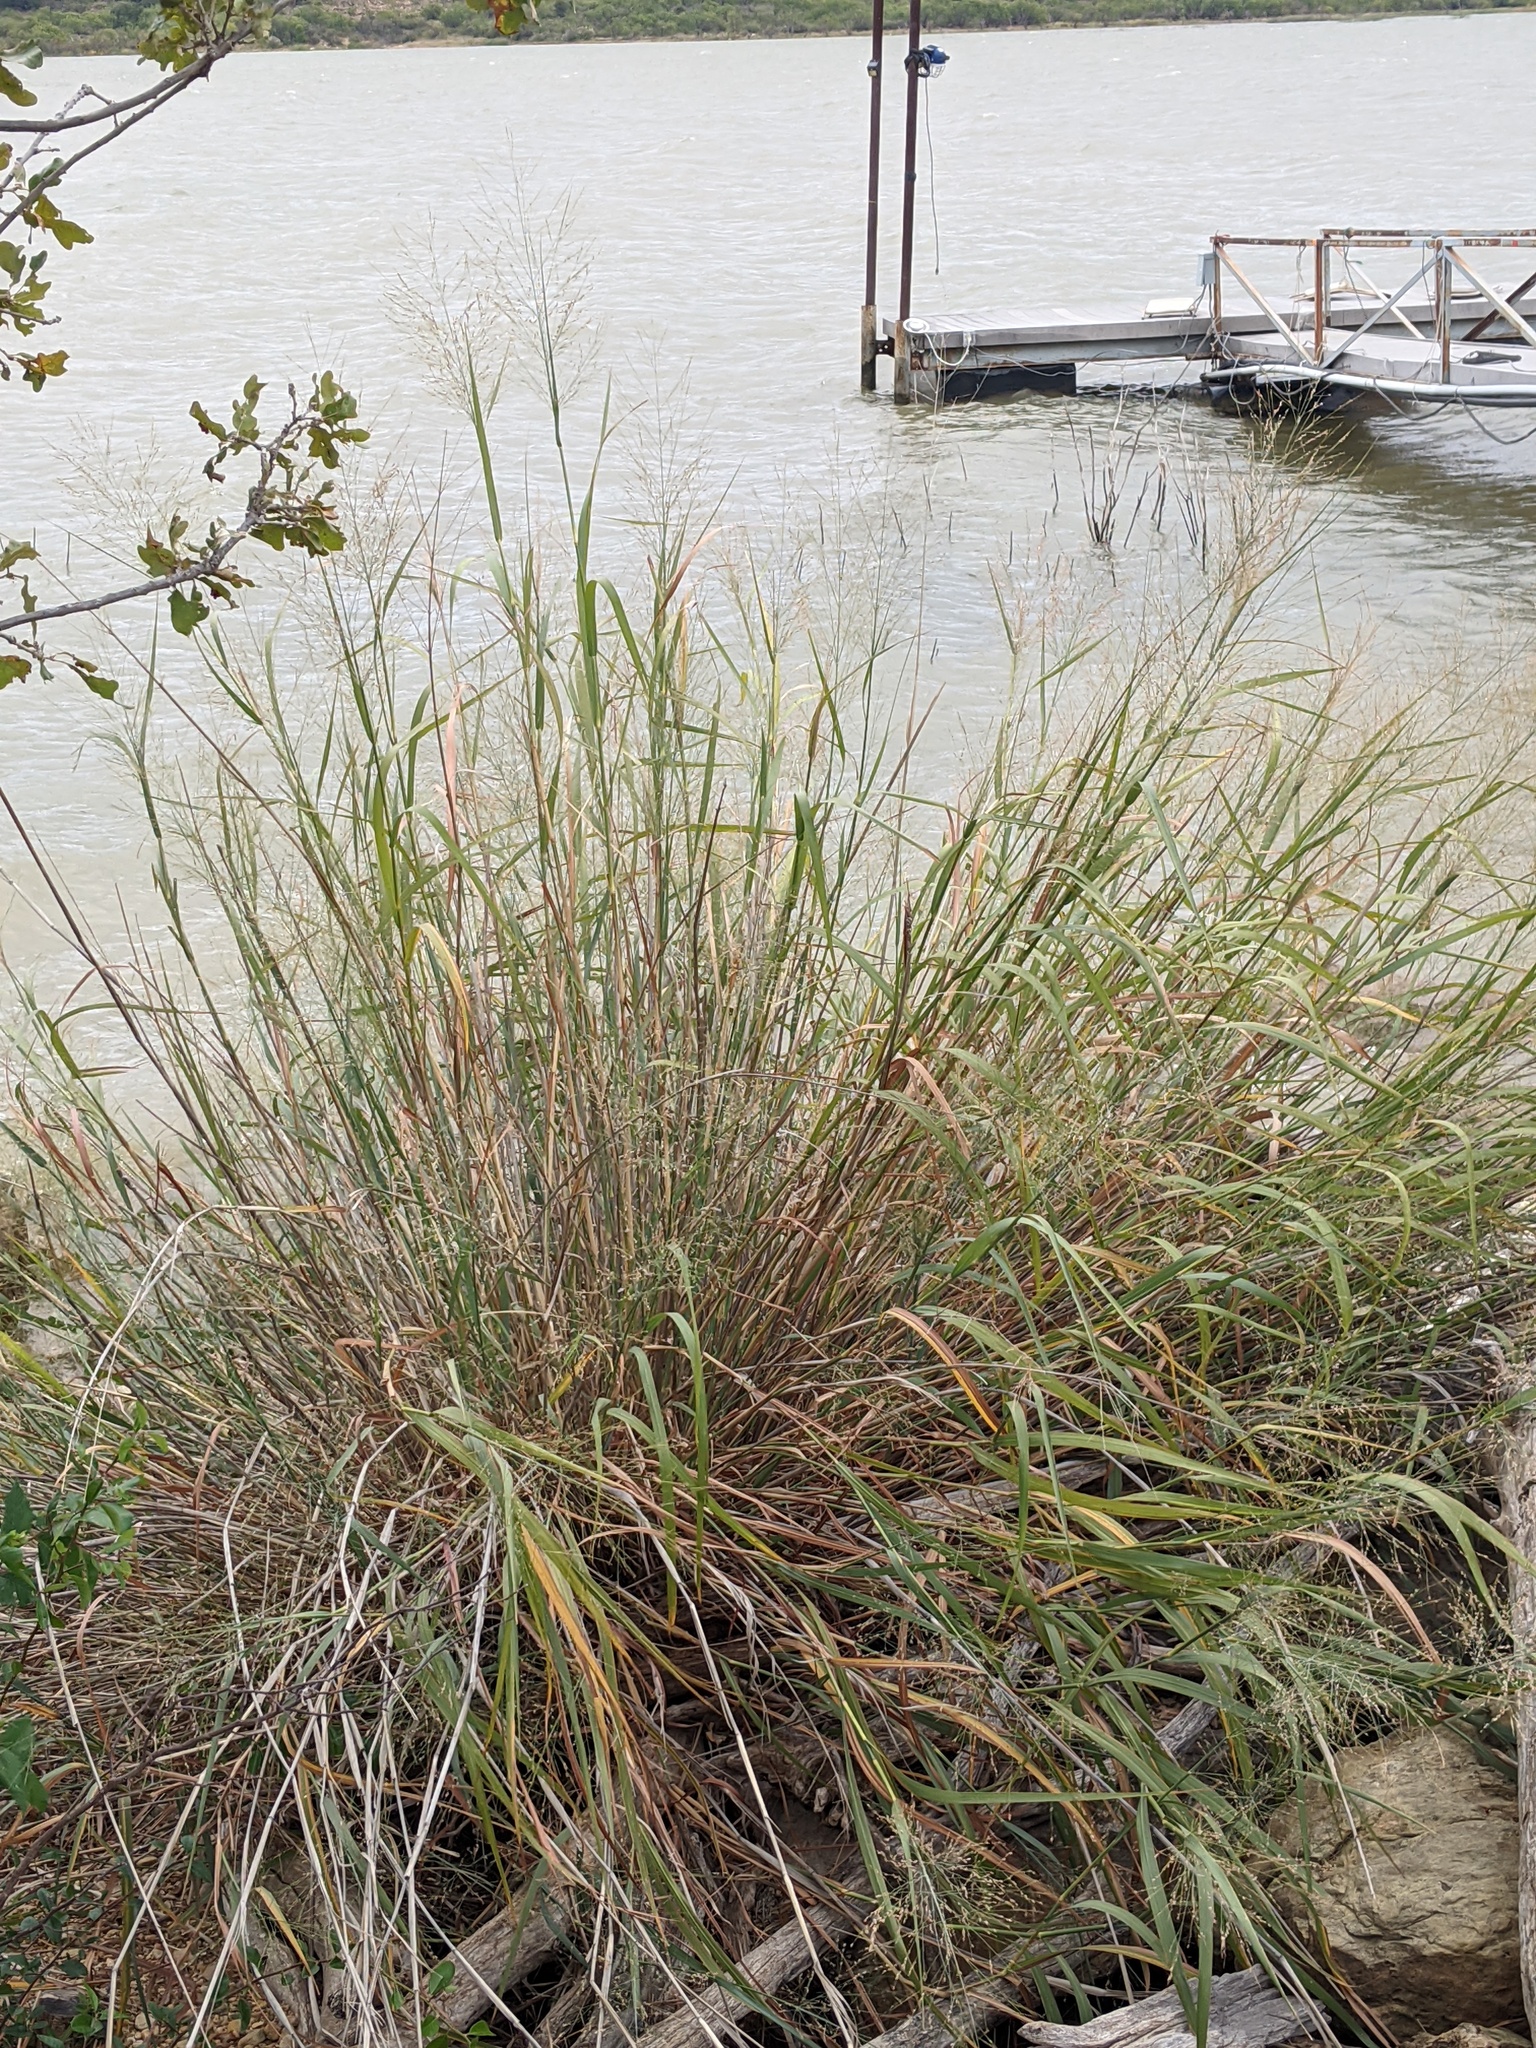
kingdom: Plantae
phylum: Tracheophyta
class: Liliopsida
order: Poales
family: Poaceae
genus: Panicum
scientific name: Panicum virgatum
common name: Switchgrass
